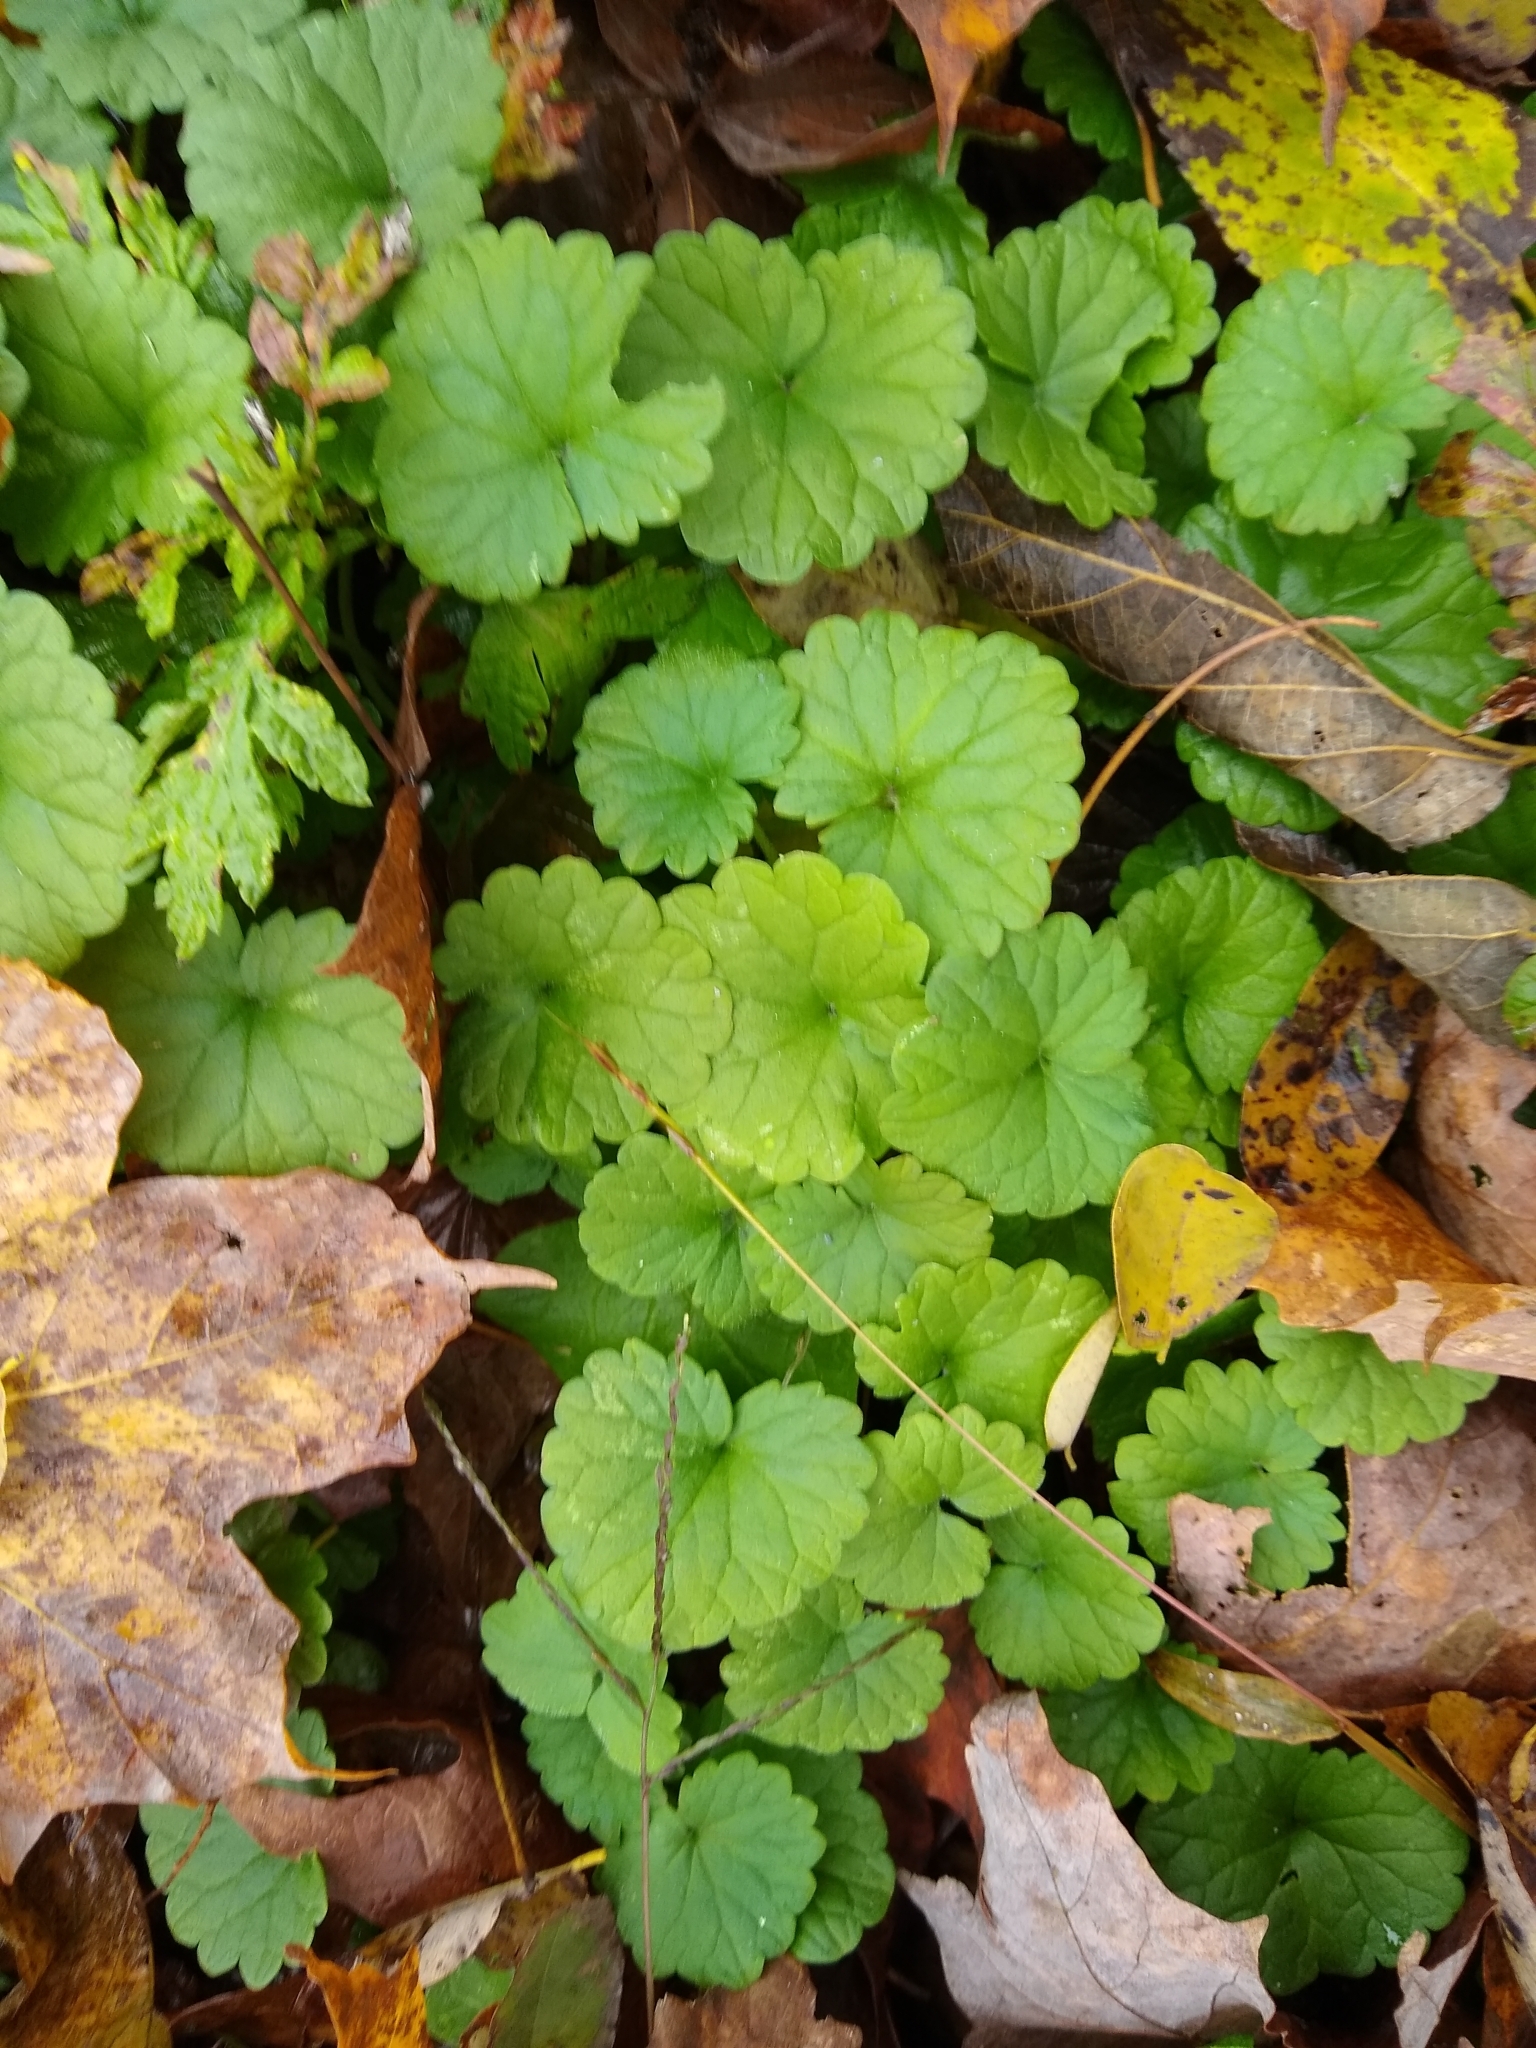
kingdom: Plantae
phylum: Tracheophyta
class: Magnoliopsida
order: Lamiales
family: Lamiaceae
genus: Glechoma
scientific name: Glechoma hederacea
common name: Ground ivy
